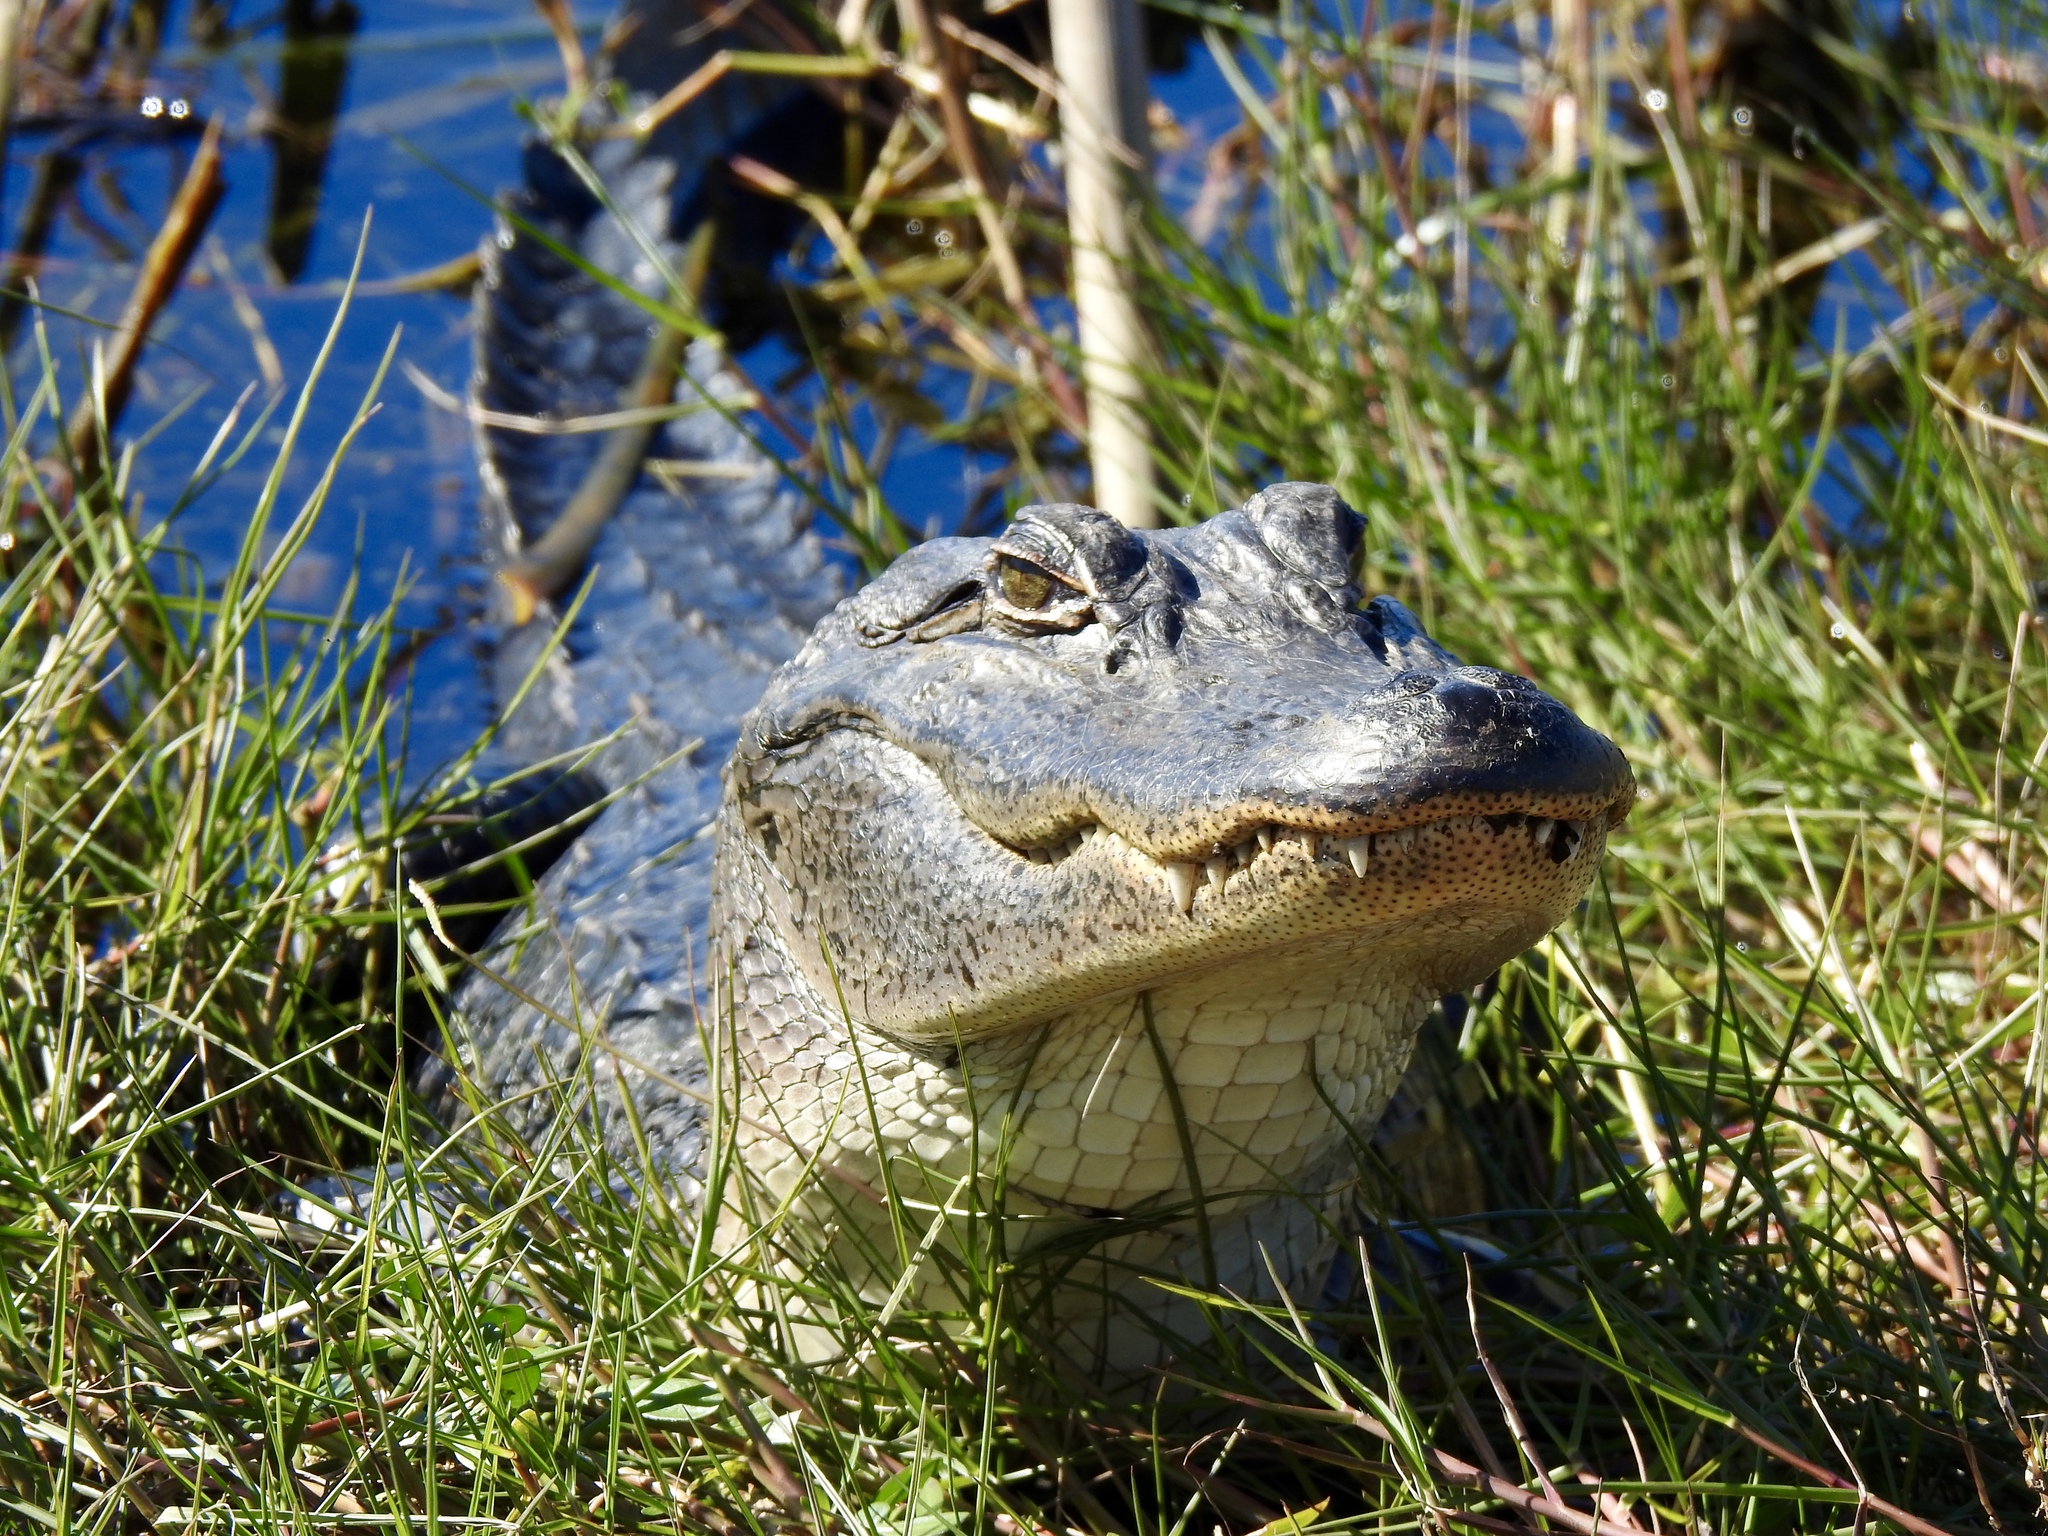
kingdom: Animalia
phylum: Chordata
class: Crocodylia
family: Alligatoridae
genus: Alligator
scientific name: Alligator mississippiensis
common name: American alligator
